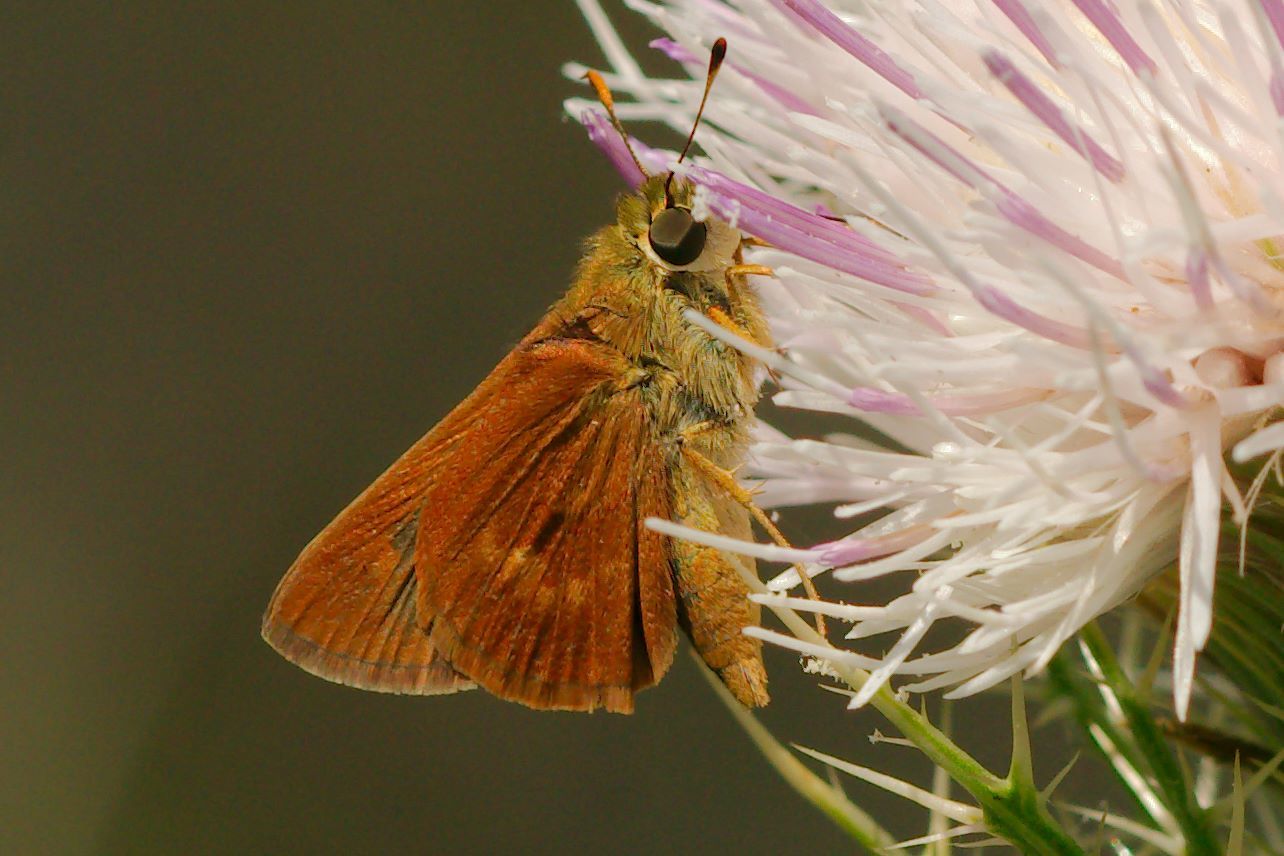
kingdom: Animalia
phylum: Arthropoda
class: Insecta
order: Lepidoptera
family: Hesperiidae
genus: Polites
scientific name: Polites otho
